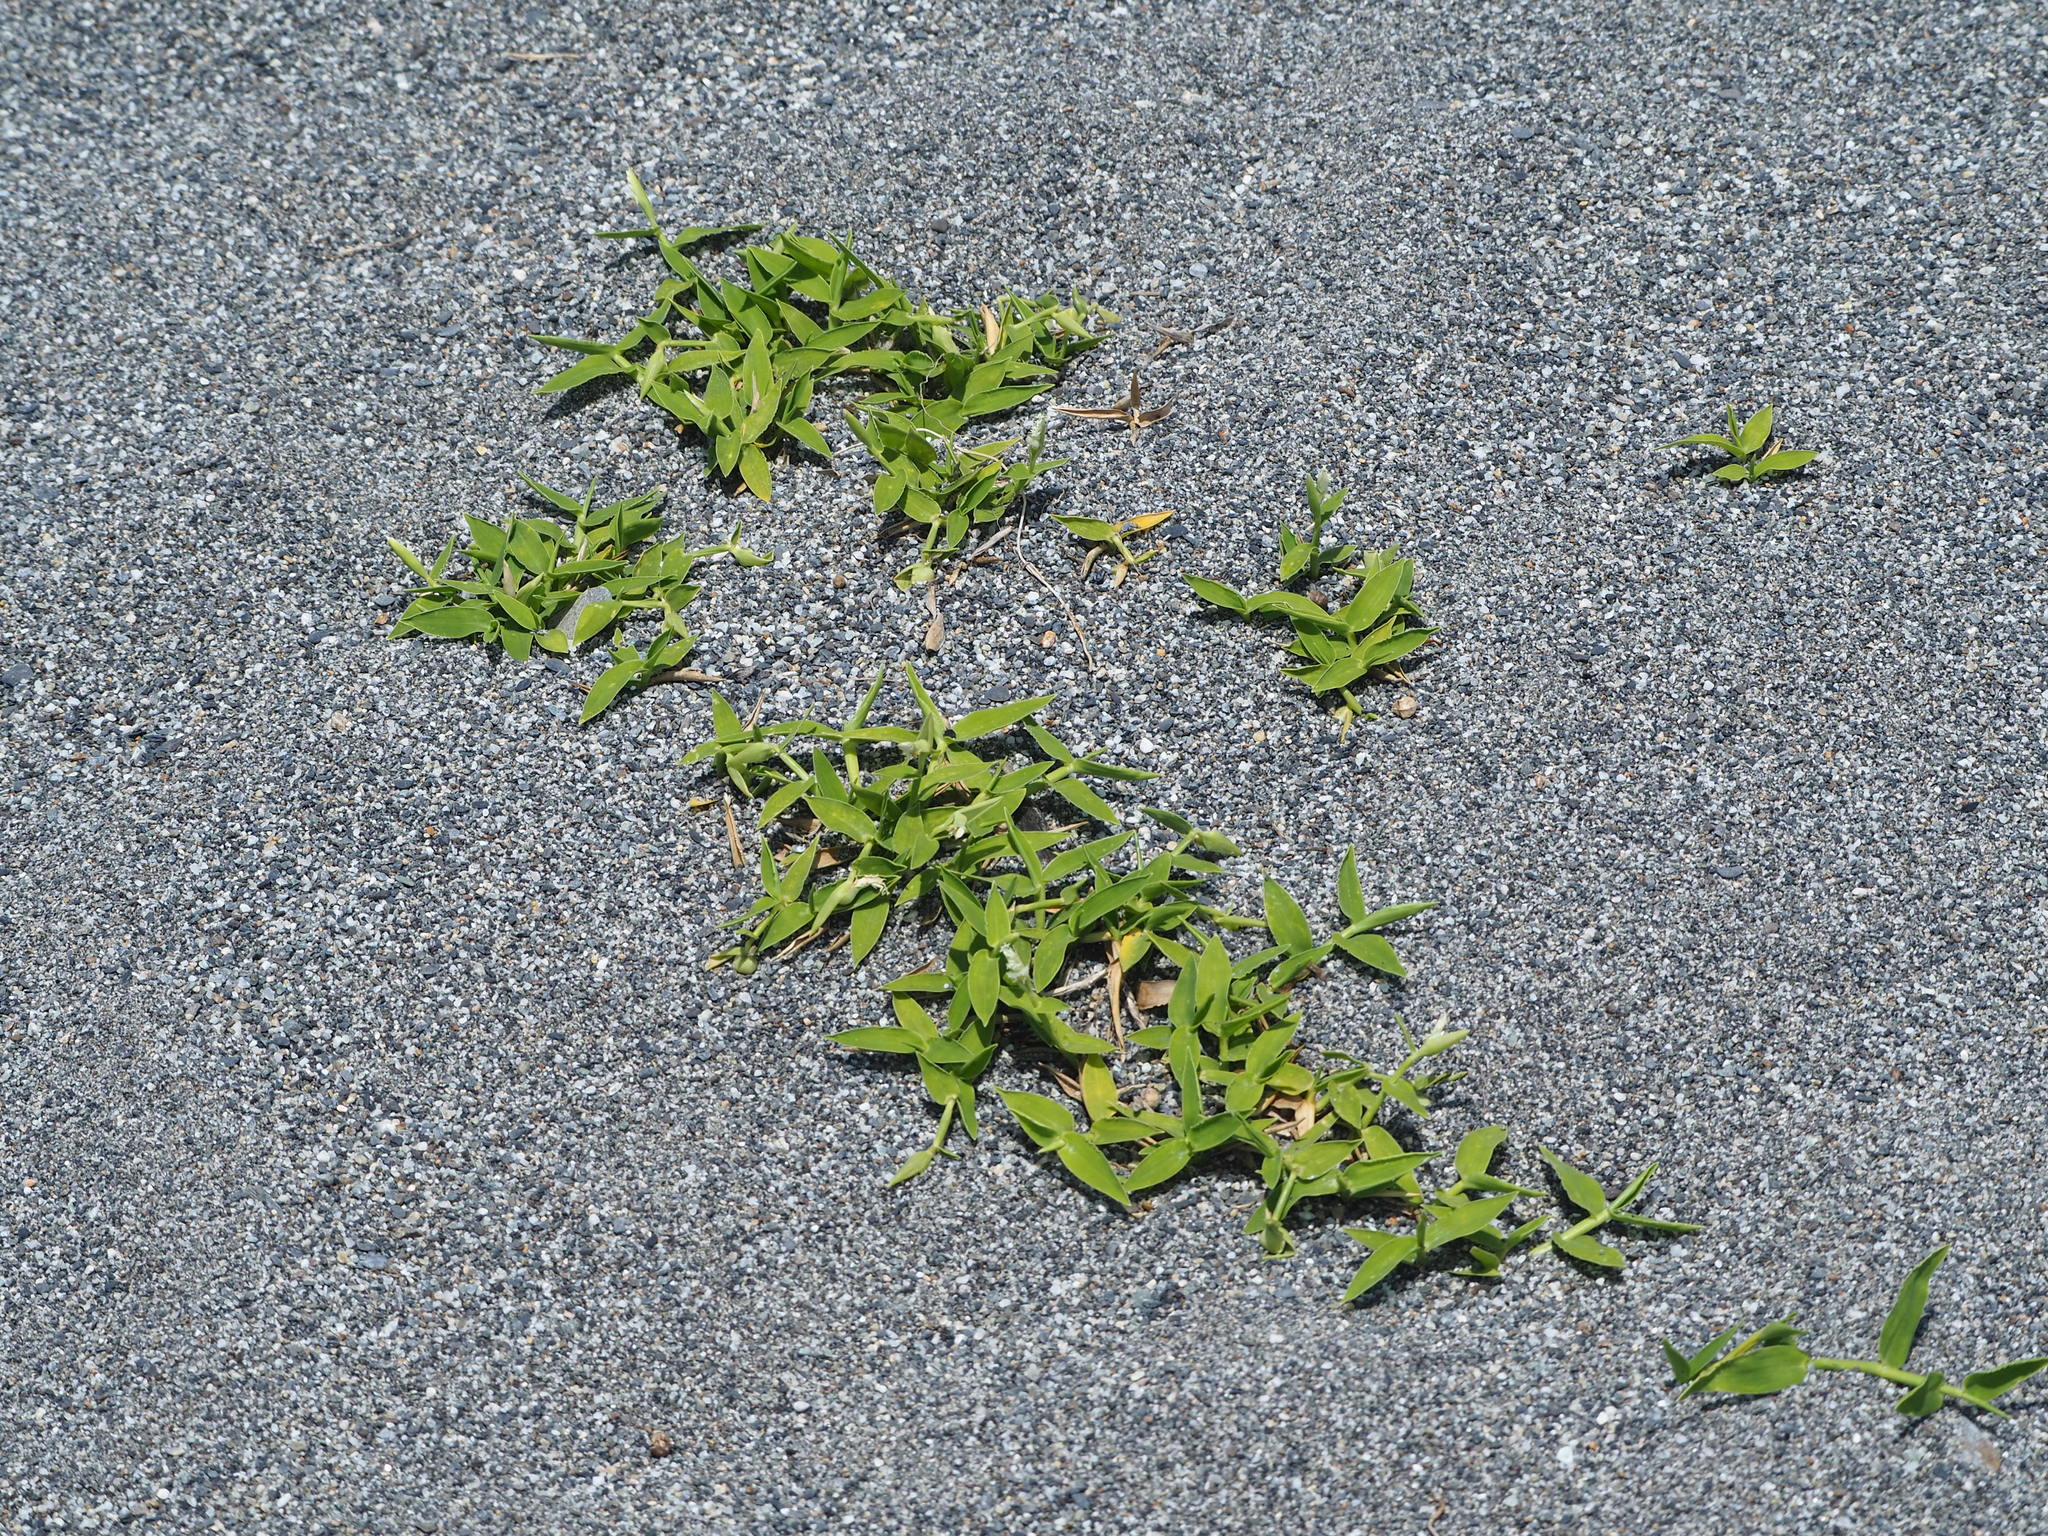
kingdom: Plantae
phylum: Tracheophyta
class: Liliopsida
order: Poales
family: Poaceae
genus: Thuarea
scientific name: Thuarea involuta
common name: Tropical beach grass
